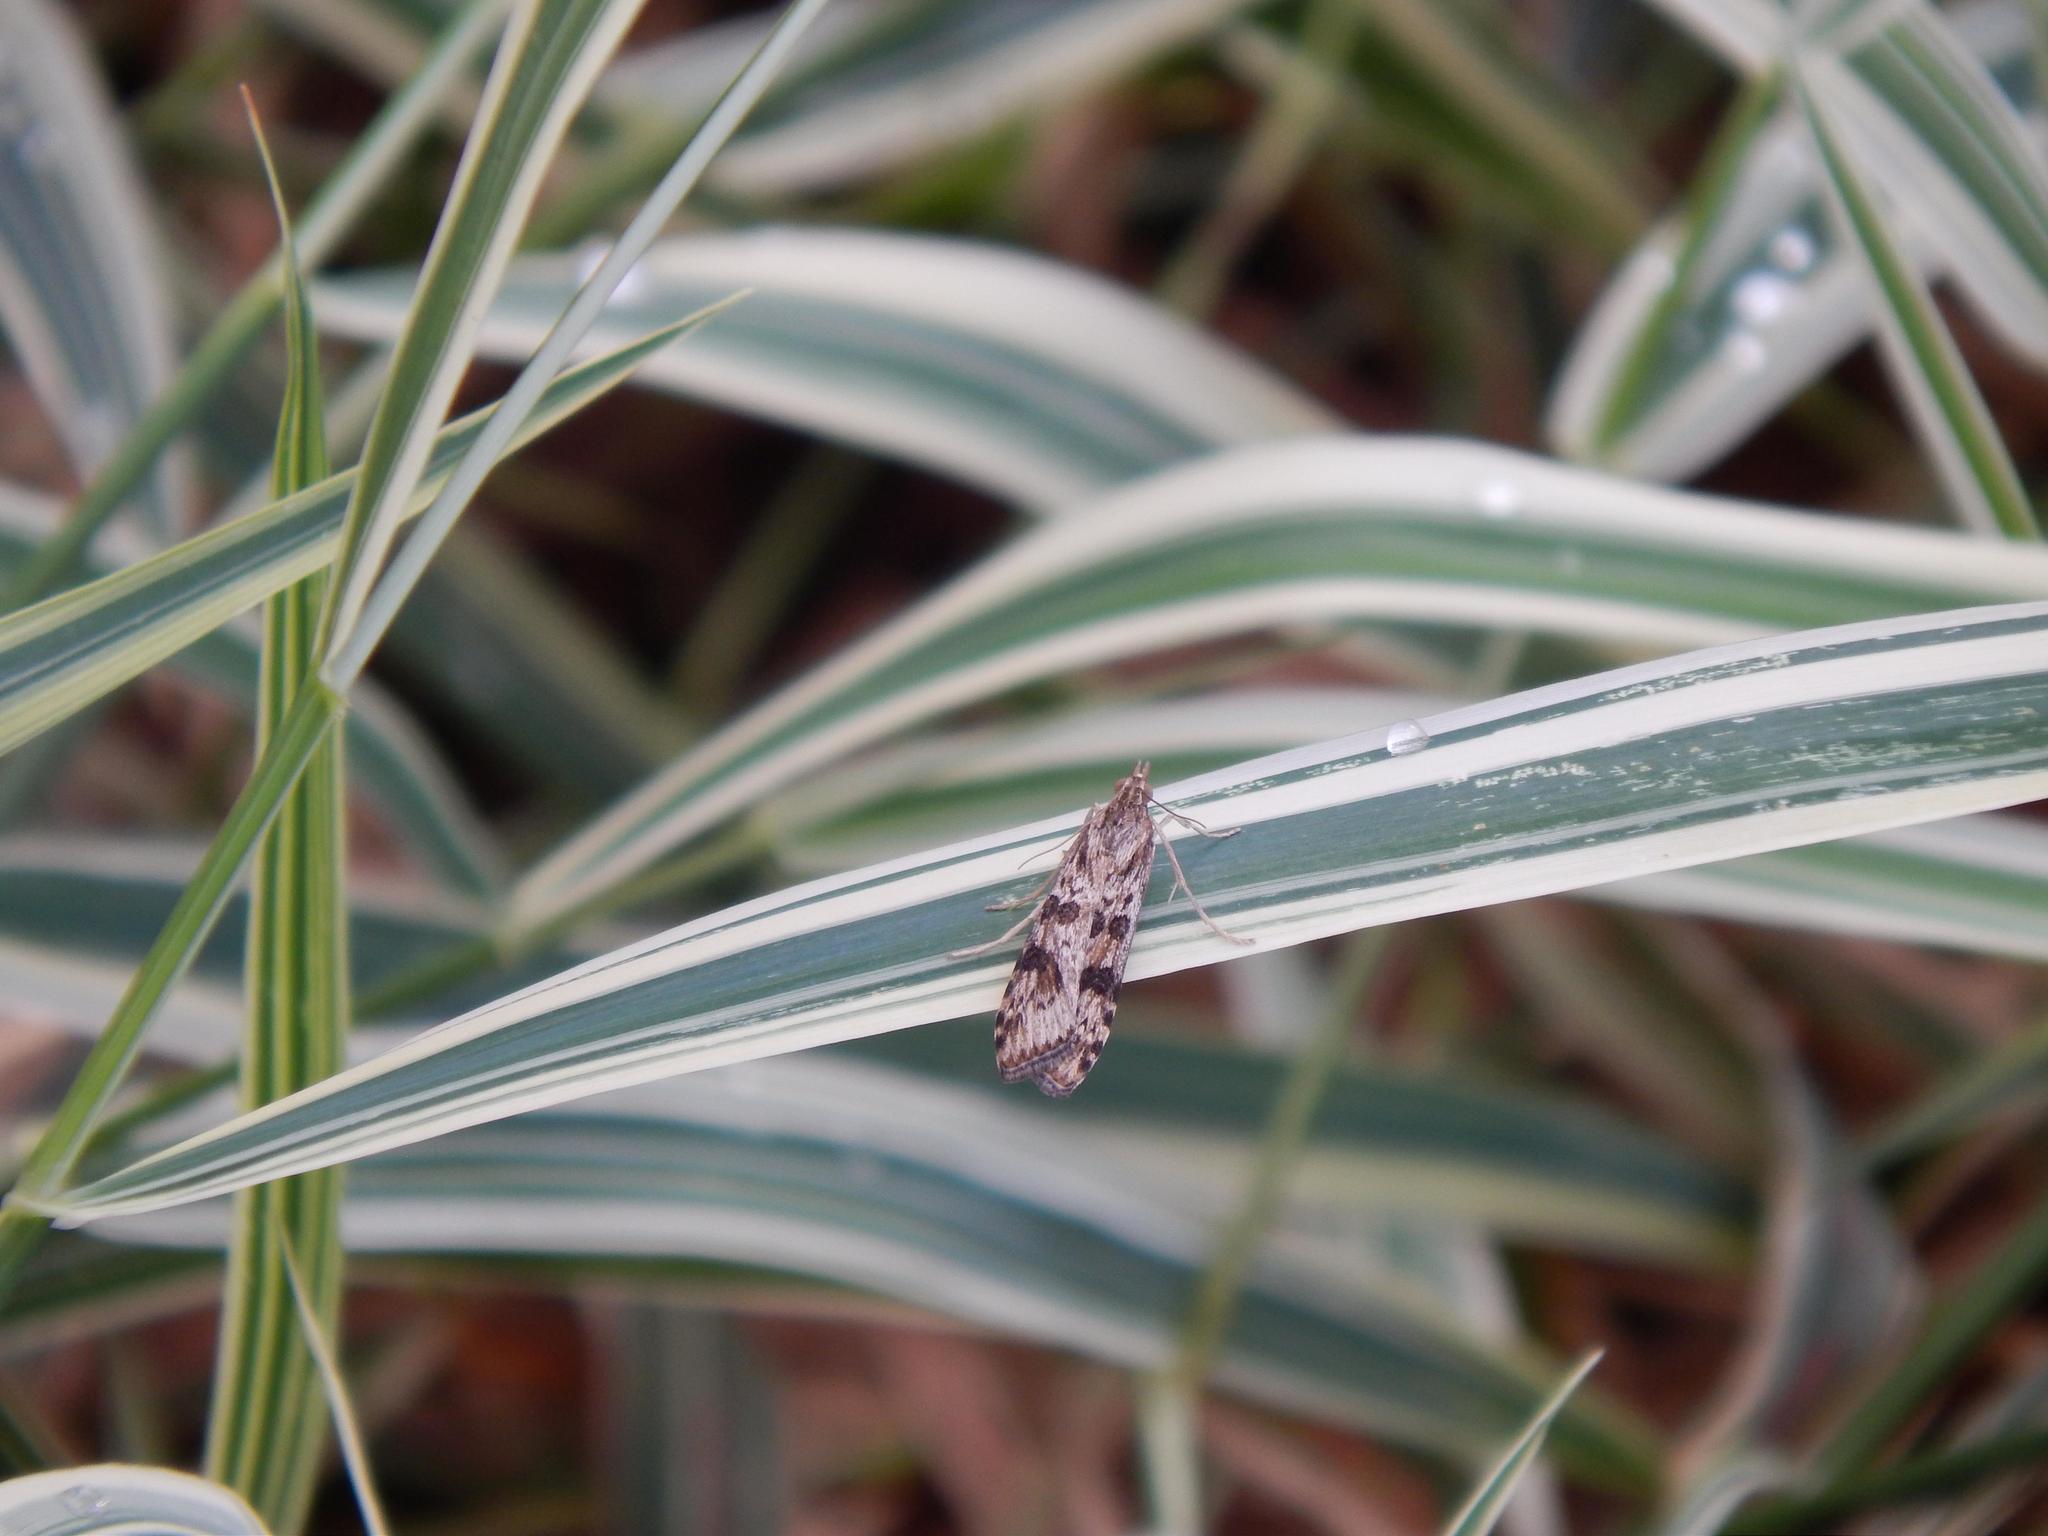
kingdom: Animalia
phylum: Arthropoda
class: Insecta
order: Lepidoptera
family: Crambidae
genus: Nomophila
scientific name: Nomophila nearctica
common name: American rush veneer
